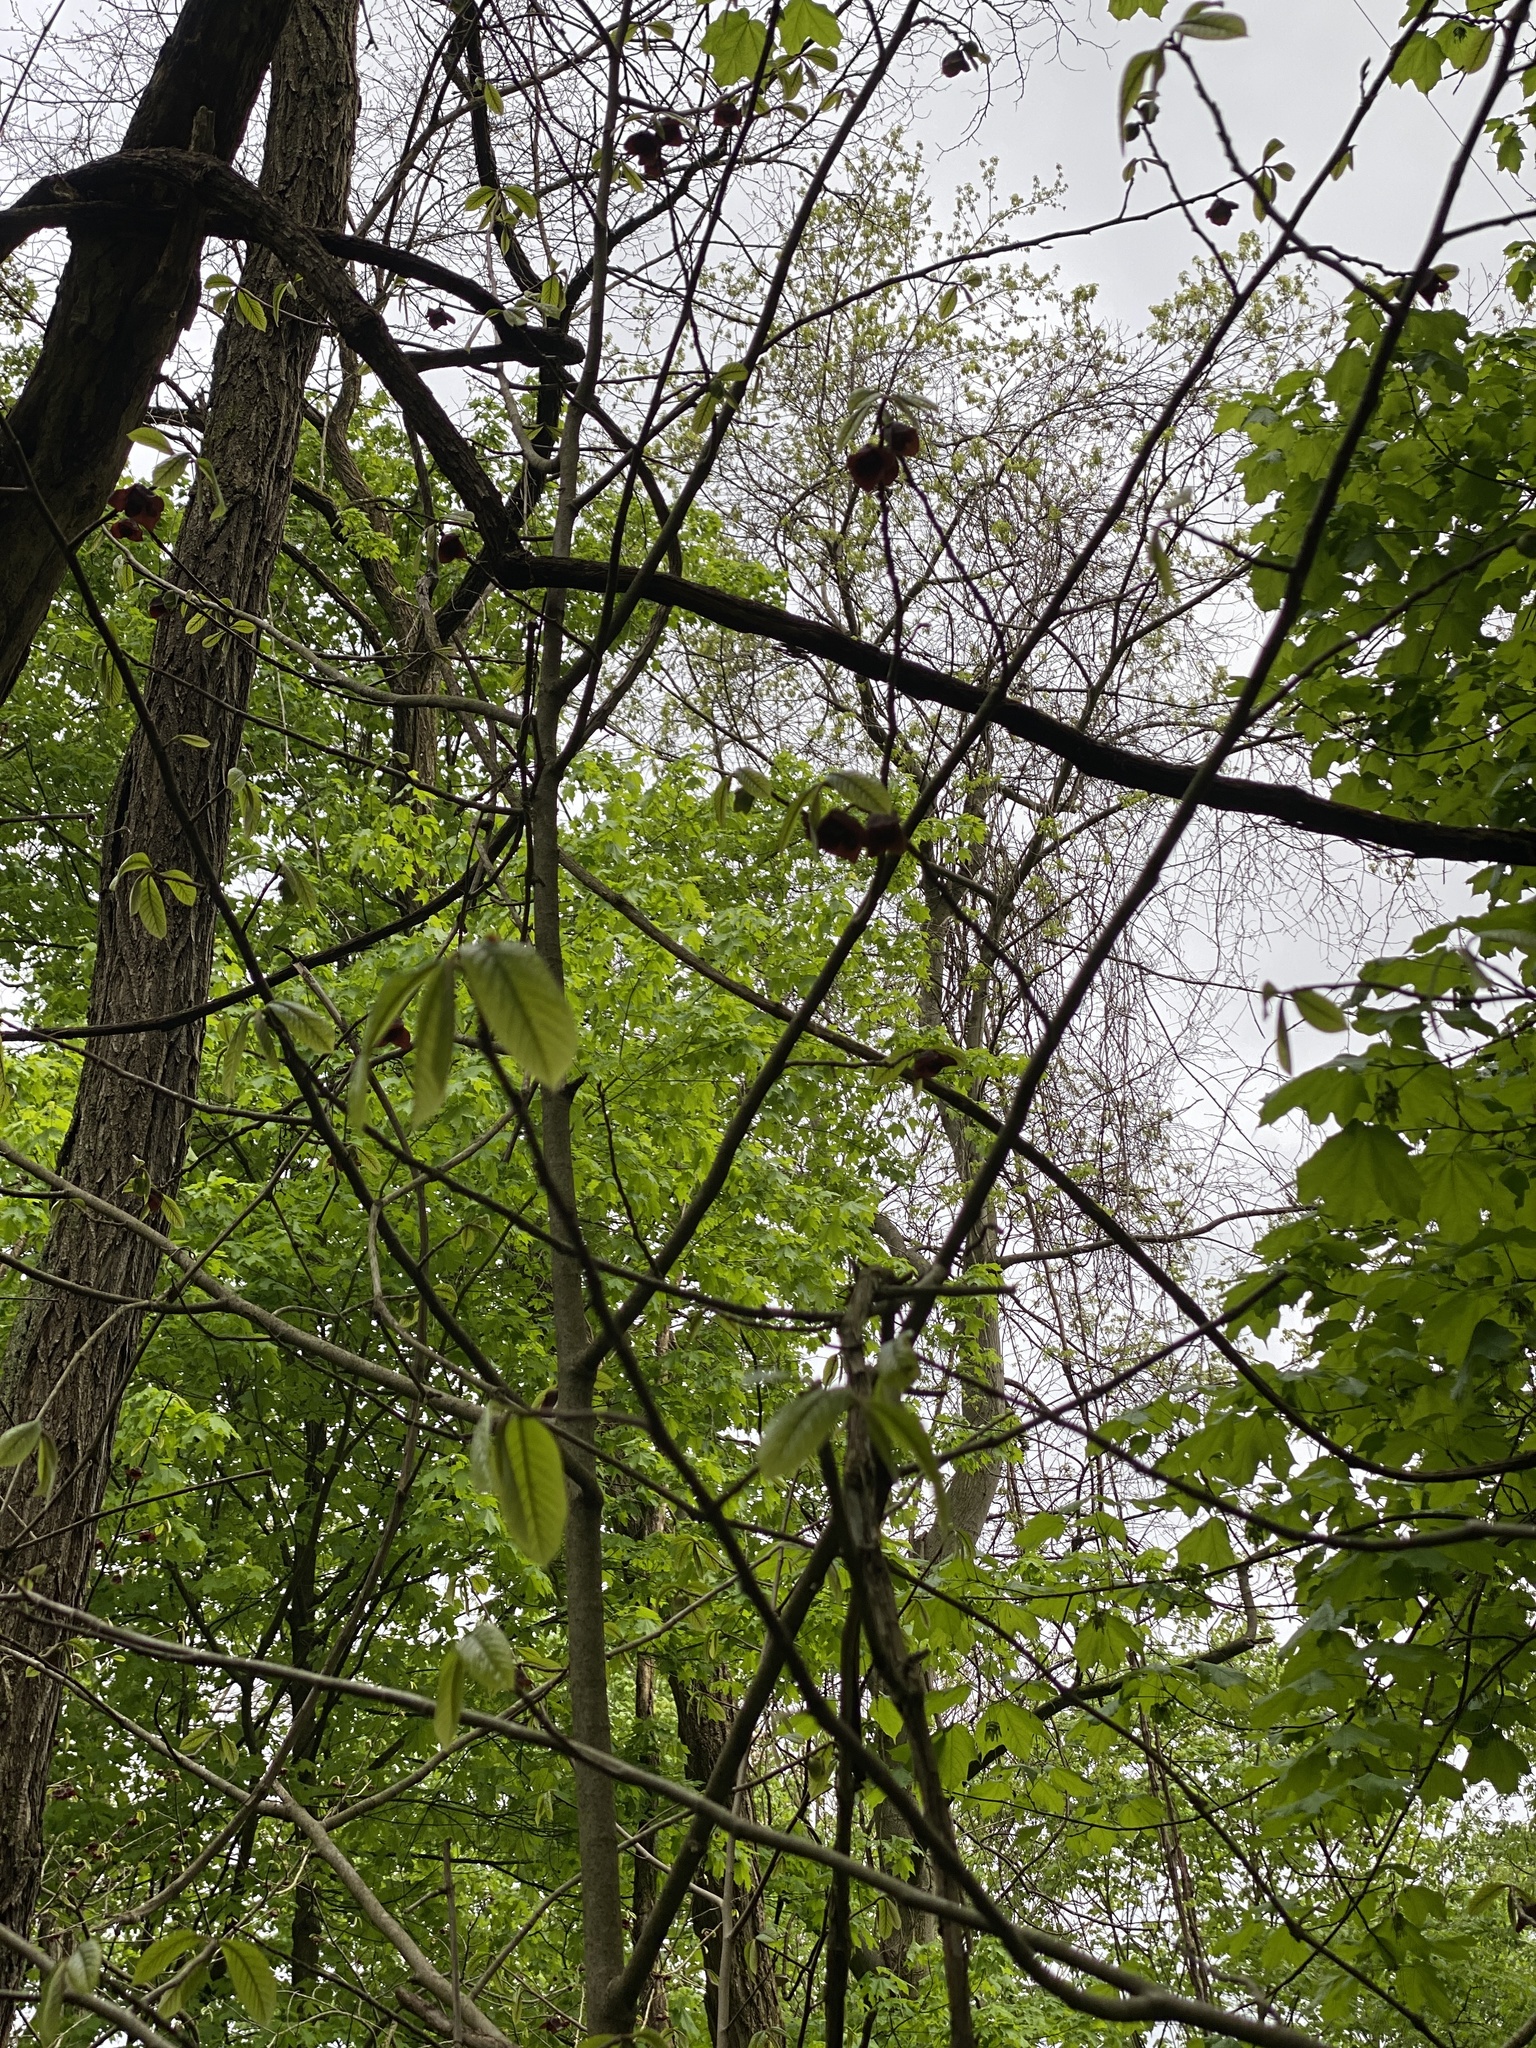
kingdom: Plantae
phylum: Tracheophyta
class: Magnoliopsida
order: Magnoliales
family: Annonaceae
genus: Asimina
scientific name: Asimina triloba
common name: Dog-banana
